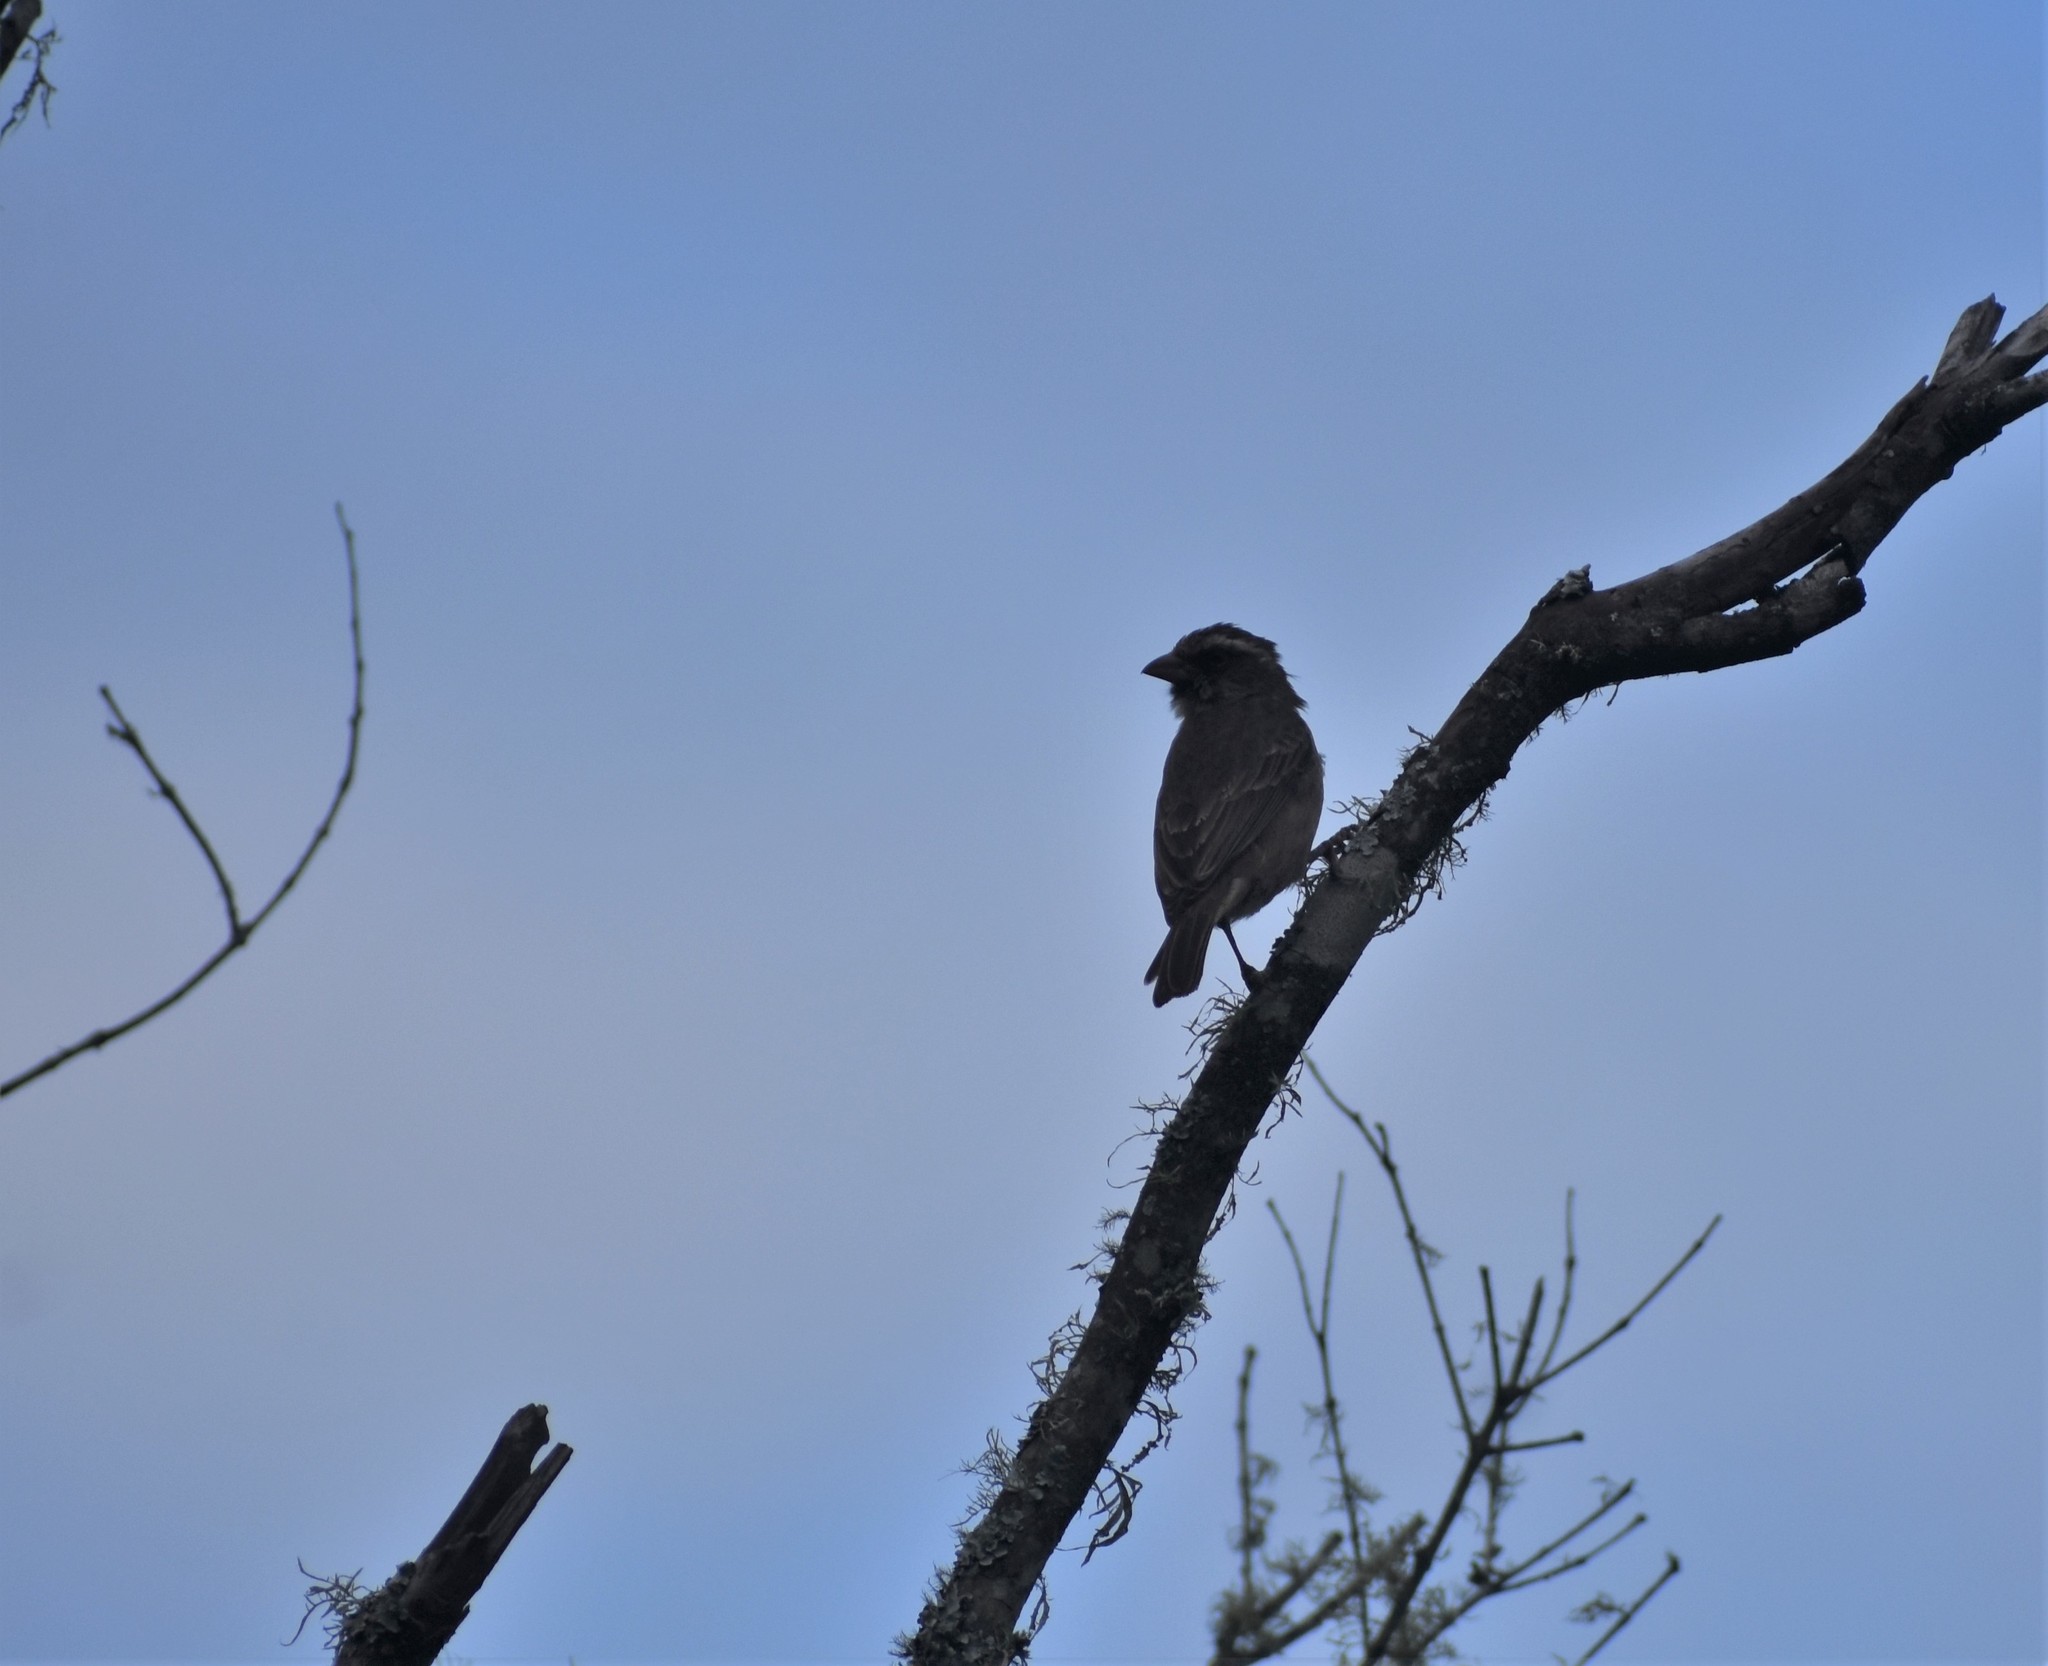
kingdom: Animalia
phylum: Chordata
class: Aves
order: Passeriformes
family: Fringillidae
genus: Crithagra
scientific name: Crithagra gularis
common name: Streaky-headed seedeater
